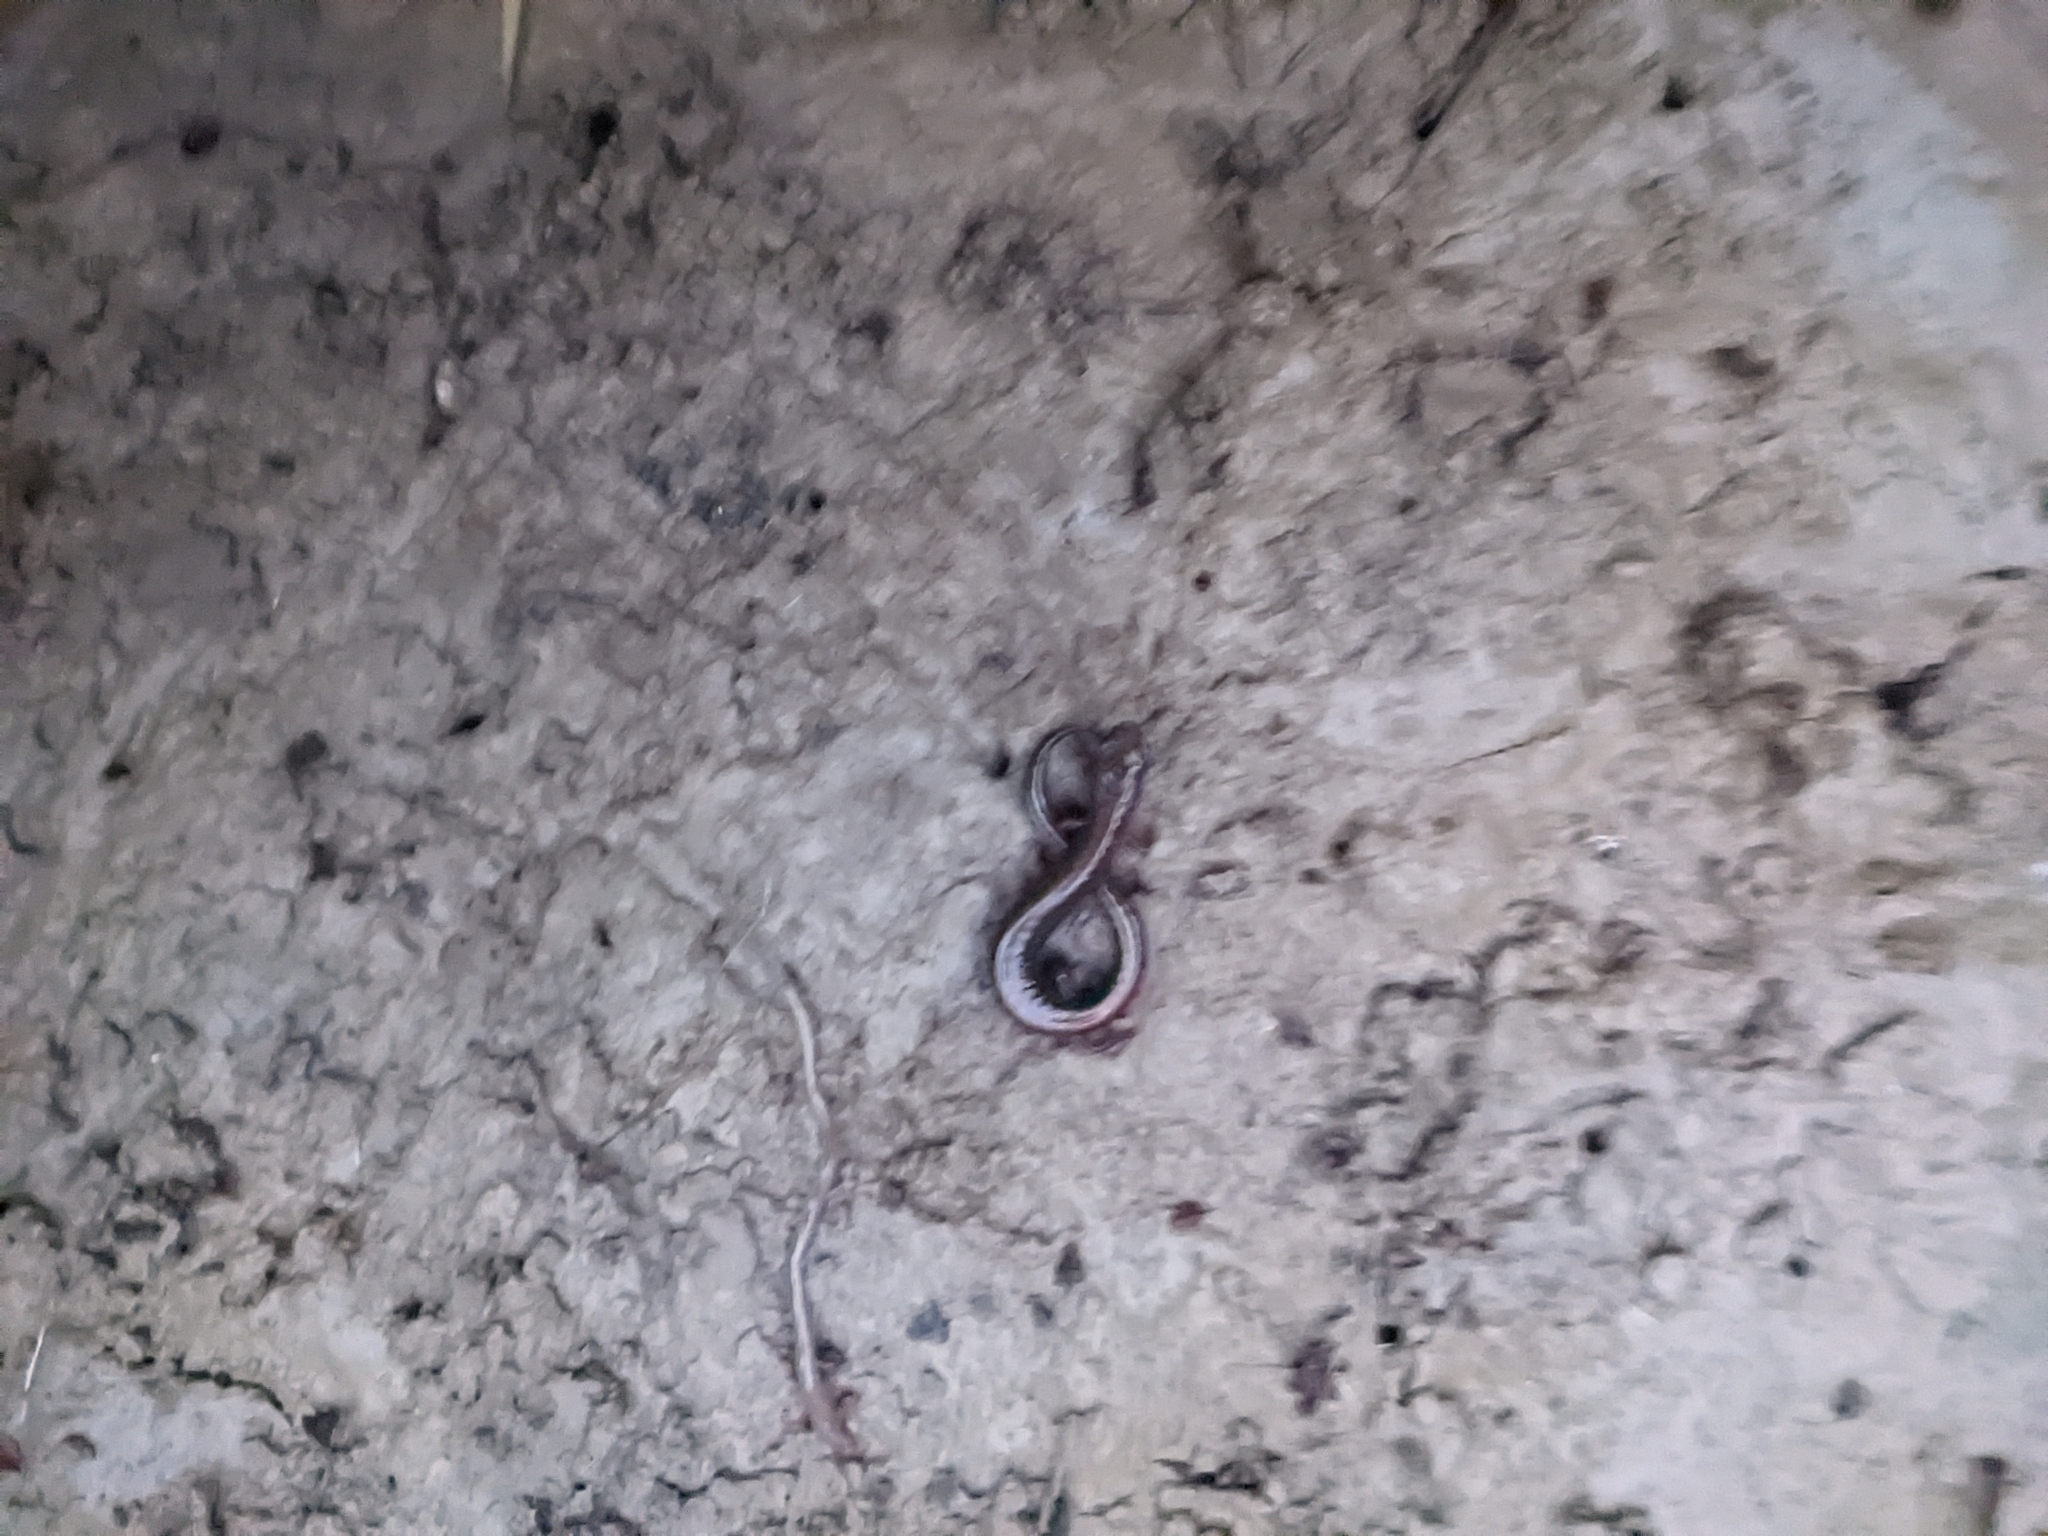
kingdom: Animalia
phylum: Chordata
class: Amphibia
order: Caudata
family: Plethodontidae
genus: Plethodon
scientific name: Plethodon cinereus
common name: Redback salamander
